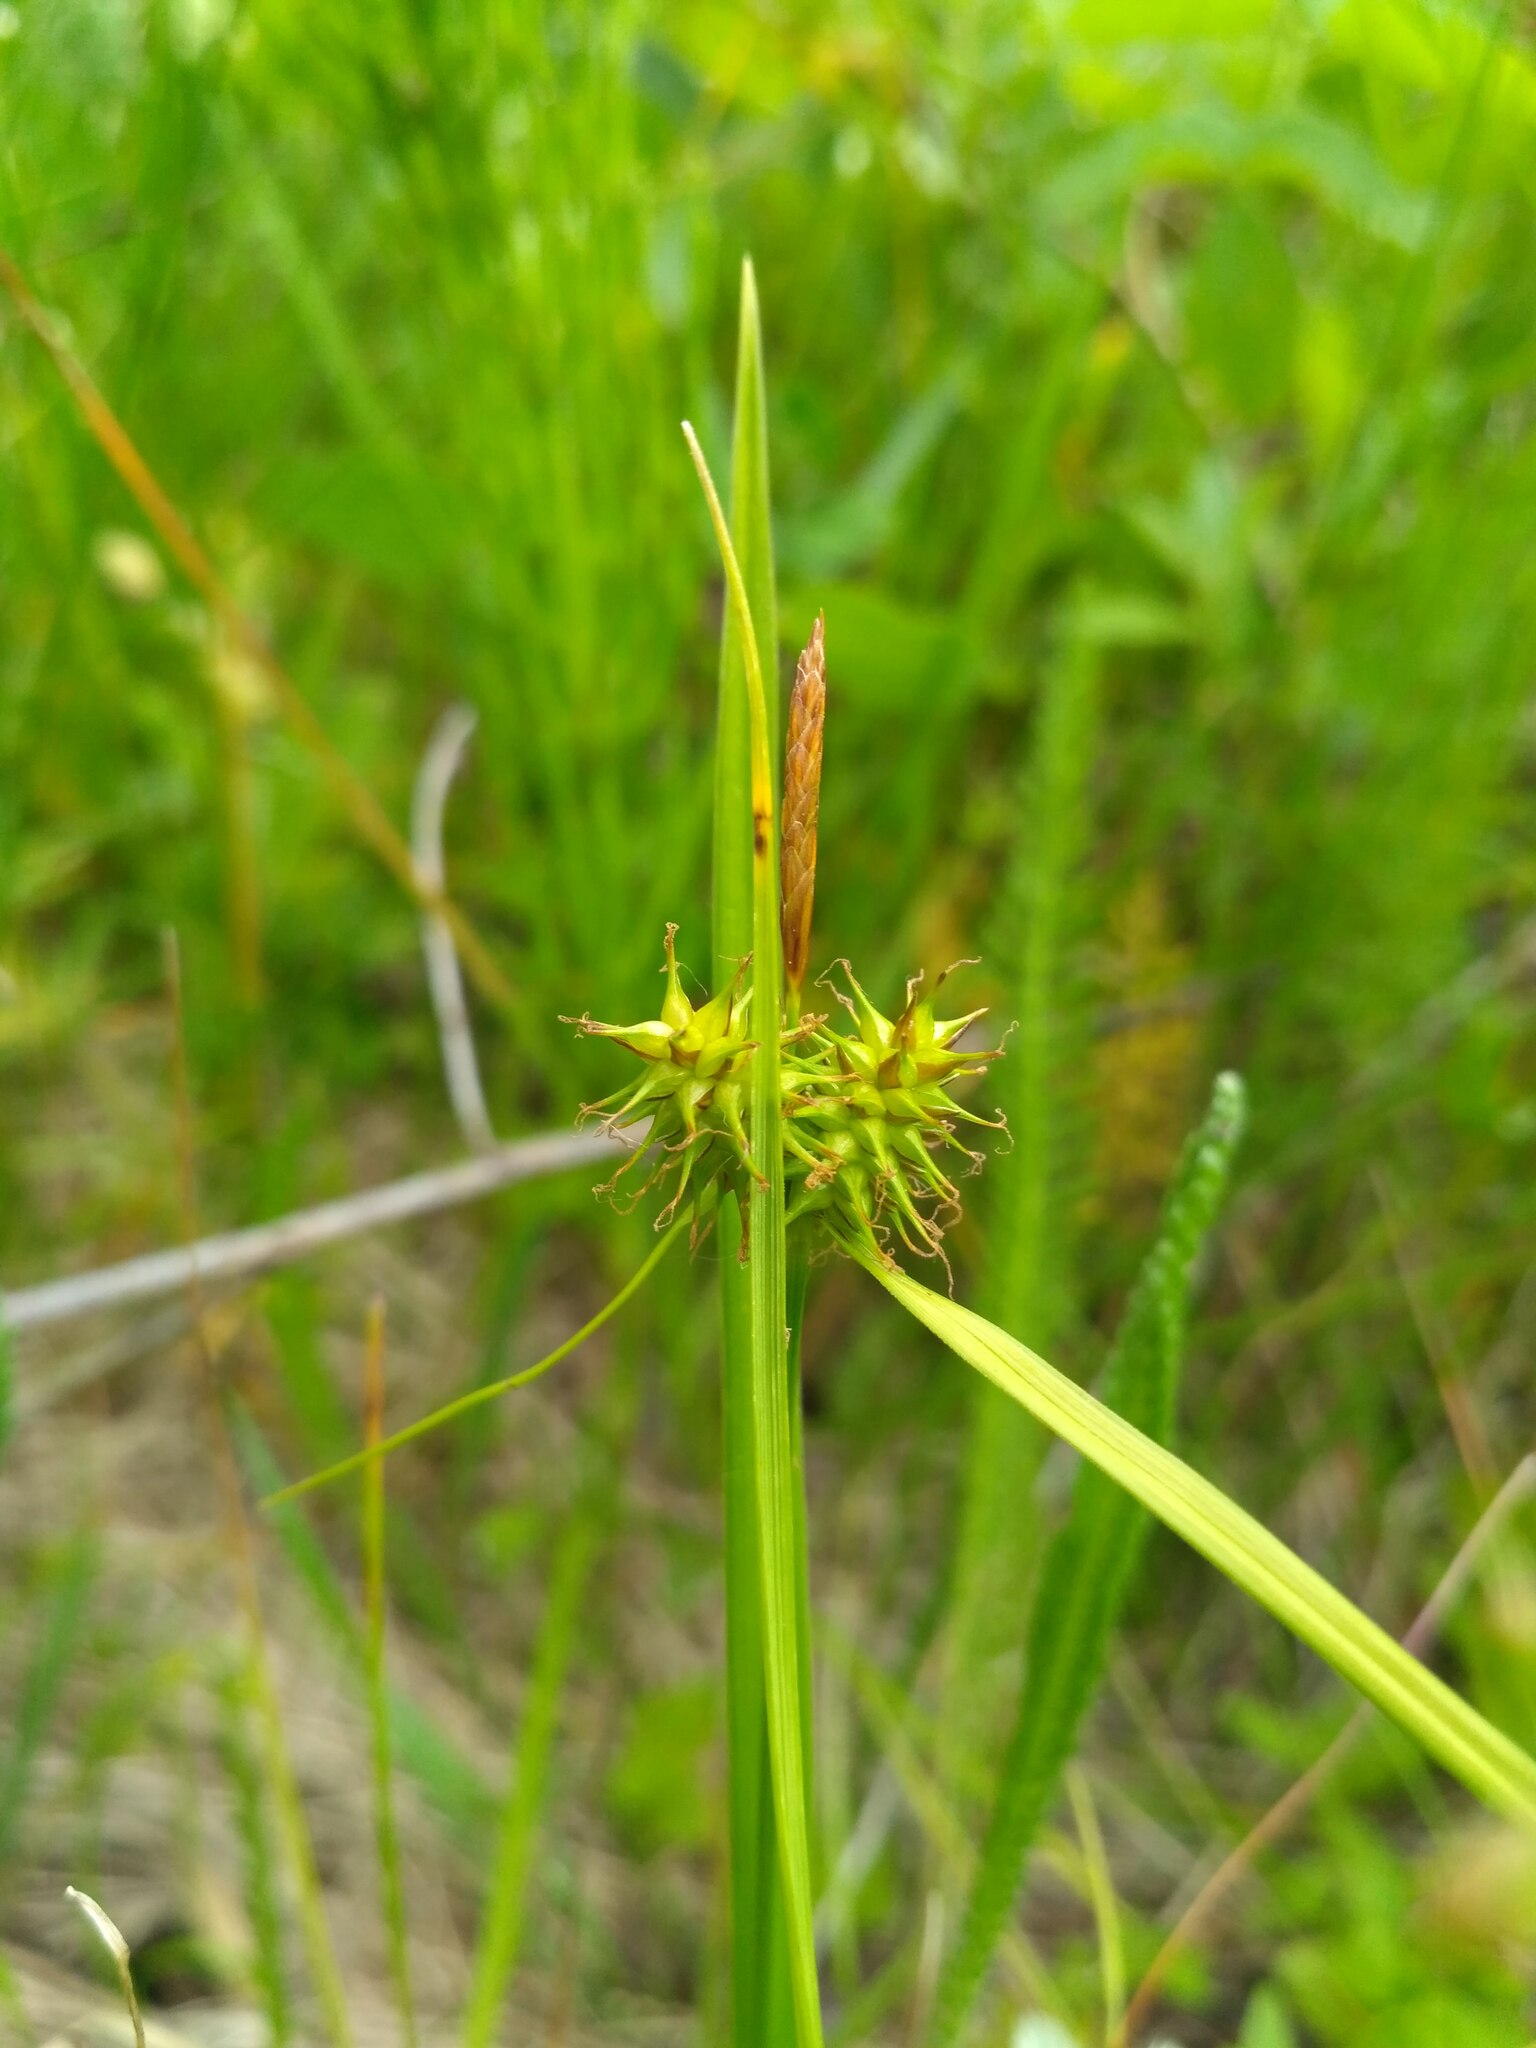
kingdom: Plantae
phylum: Tracheophyta
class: Liliopsida
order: Poales
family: Cyperaceae
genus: Carex
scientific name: Carex flava
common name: Large yellow-sedge
